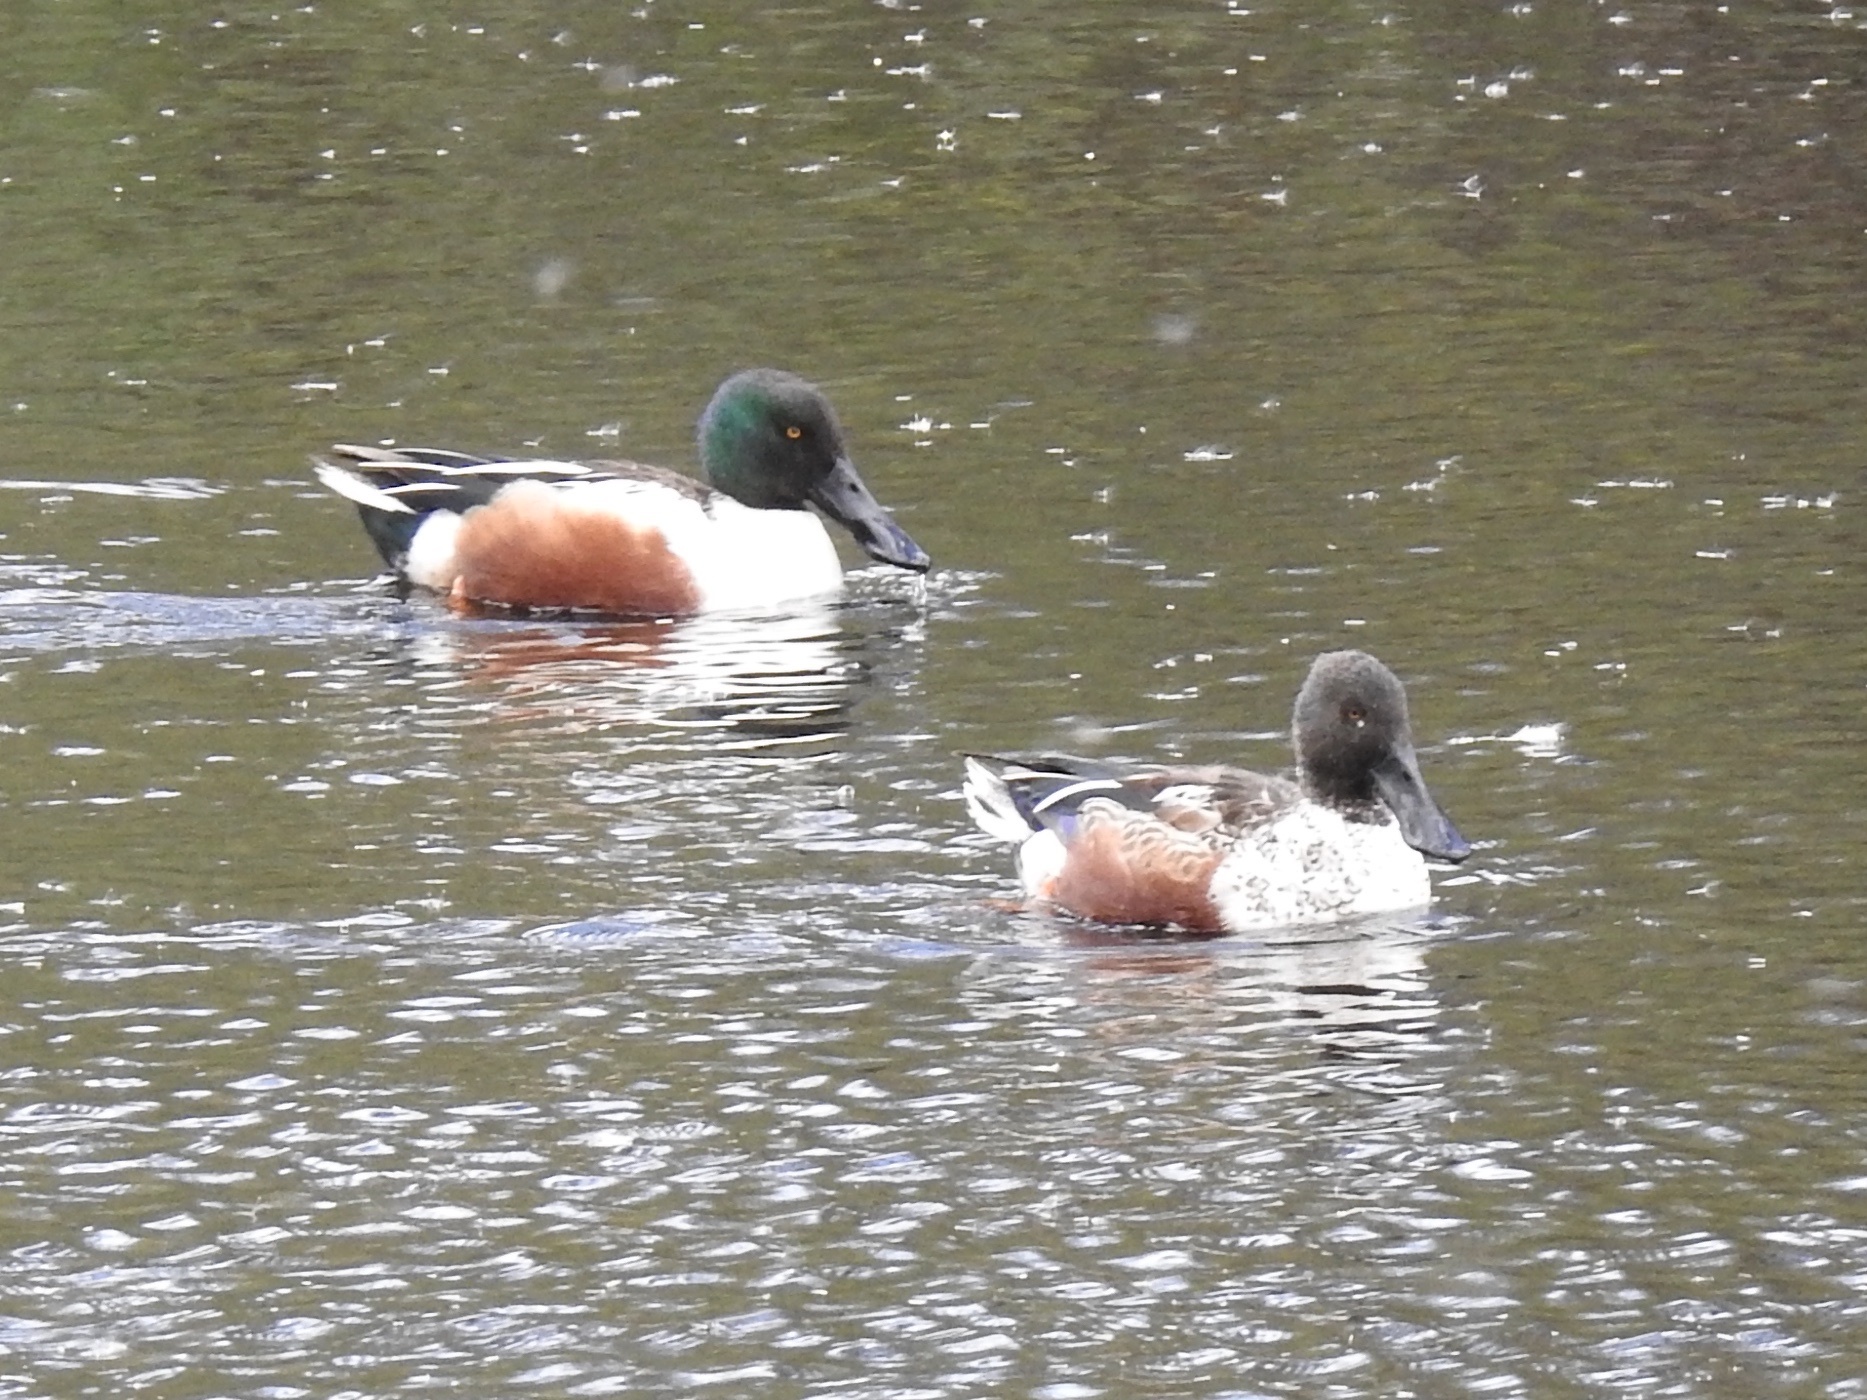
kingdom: Animalia
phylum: Chordata
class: Aves
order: Anseriformes
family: Anatidae
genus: Spatula
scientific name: Spatula clypeata
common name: Northern shoveler
